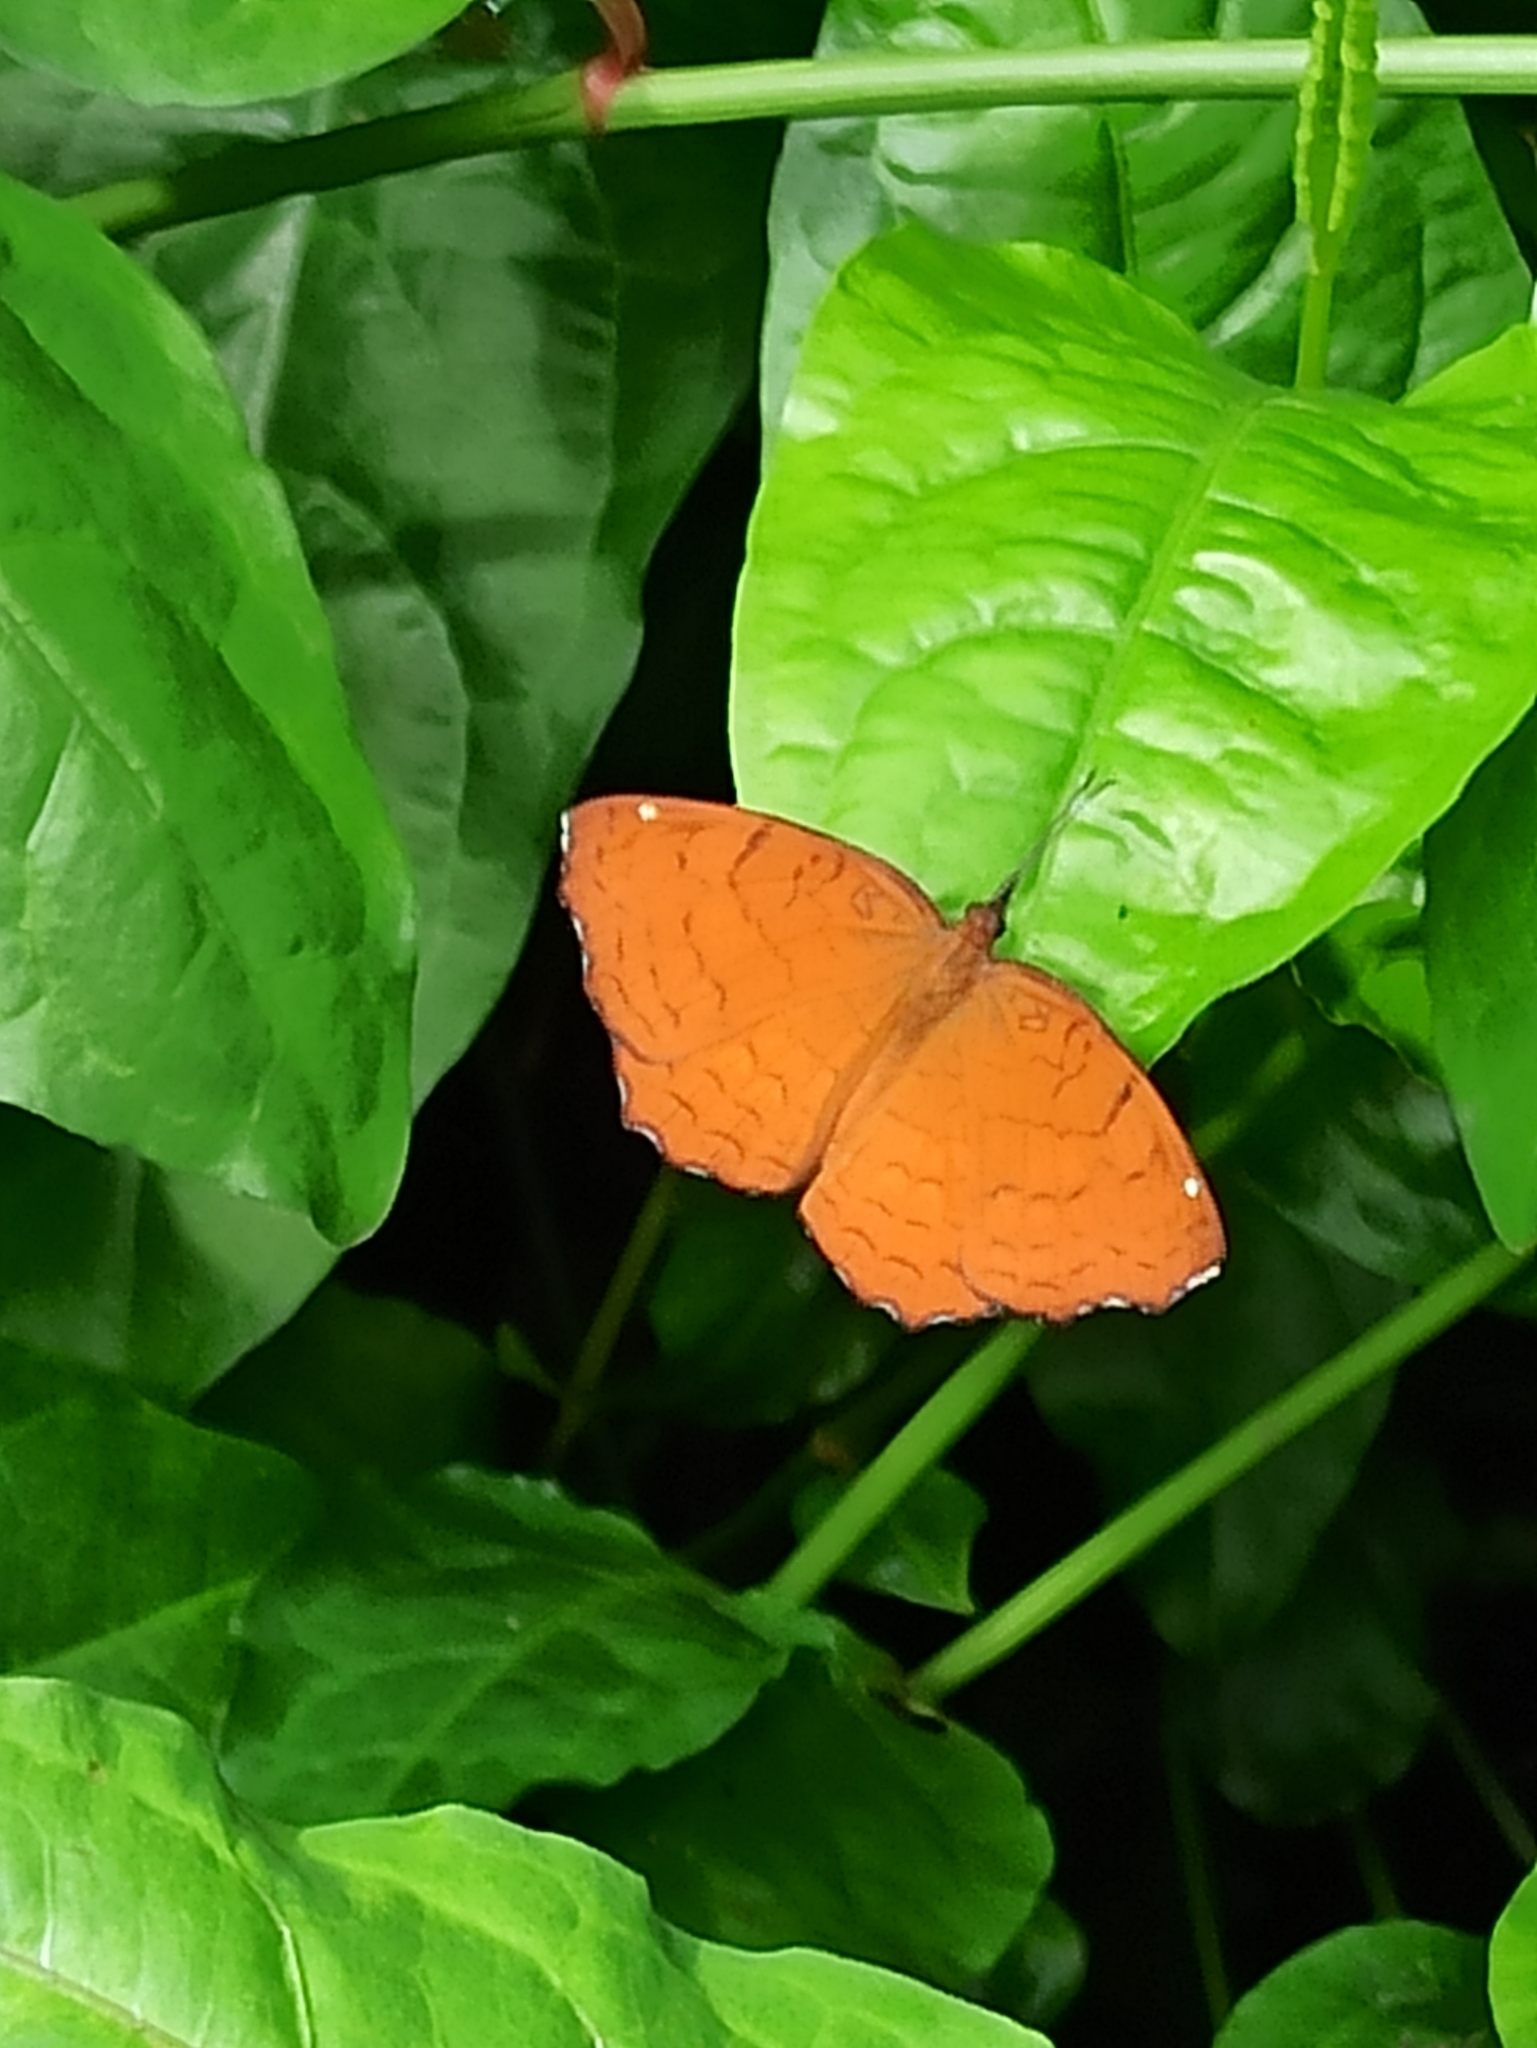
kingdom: Animalia
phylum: Arthropoda
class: Insecta
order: Lepidoptera
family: Nymphalidae
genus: Ariadne
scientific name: Ariadne ariadne
